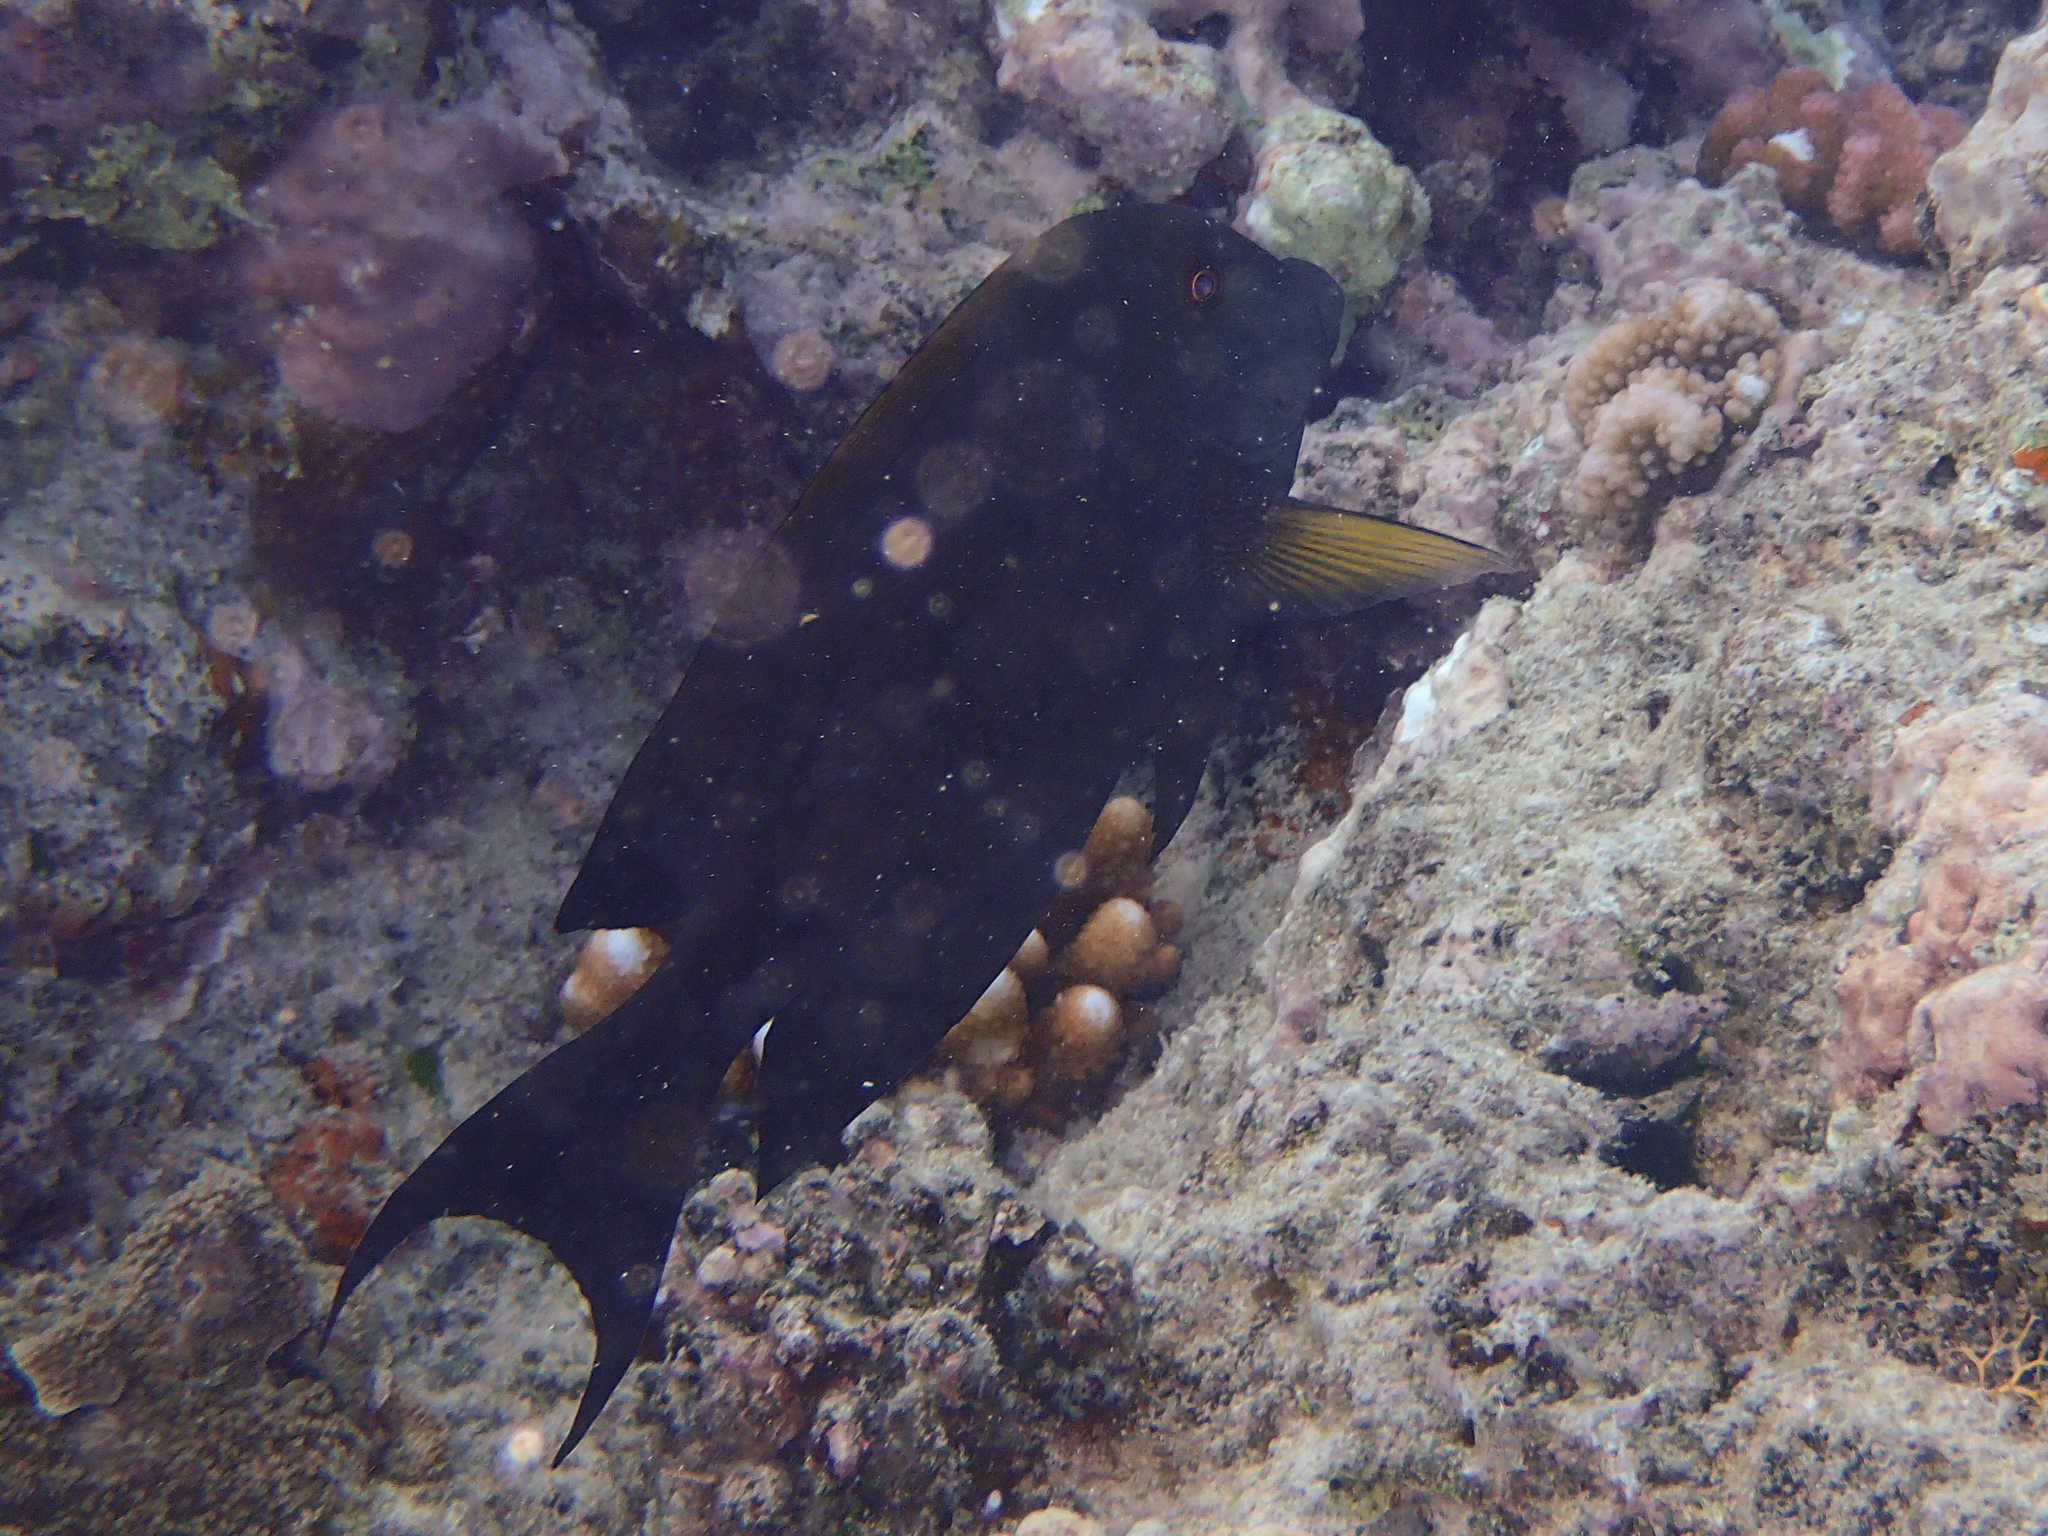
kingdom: Animalia
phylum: Chordata
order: Perciformes
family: Acanthuridae
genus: Ctenochaetus
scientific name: Ctenochaetus striatus
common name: Bristle-toothed surgeonfish
